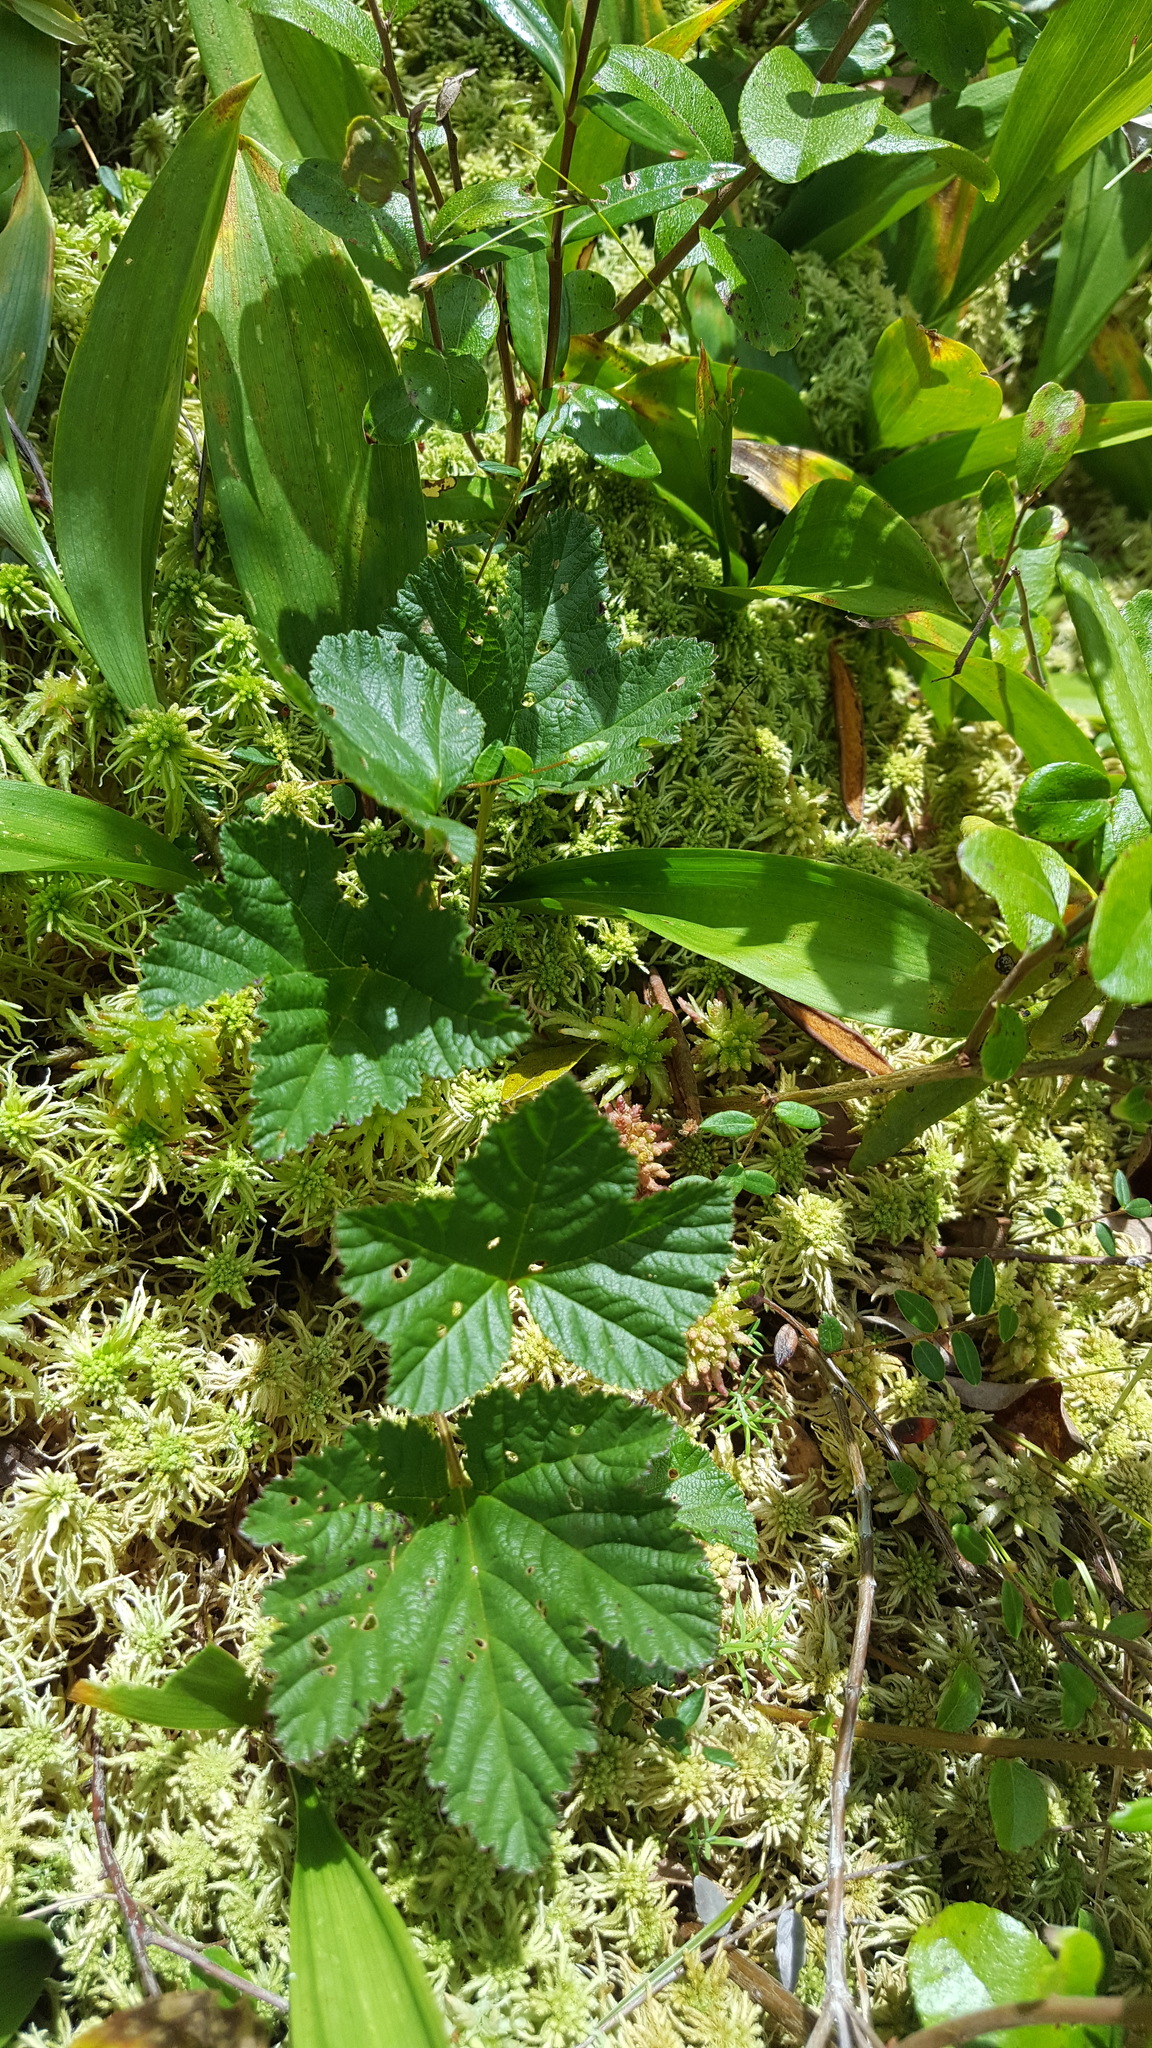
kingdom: Plantae
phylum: Tracheophyta
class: Magnoliopsida
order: Rosales
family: Rosaceae
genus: Rubus
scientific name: Rubus chamaemorus
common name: Cloudberry
